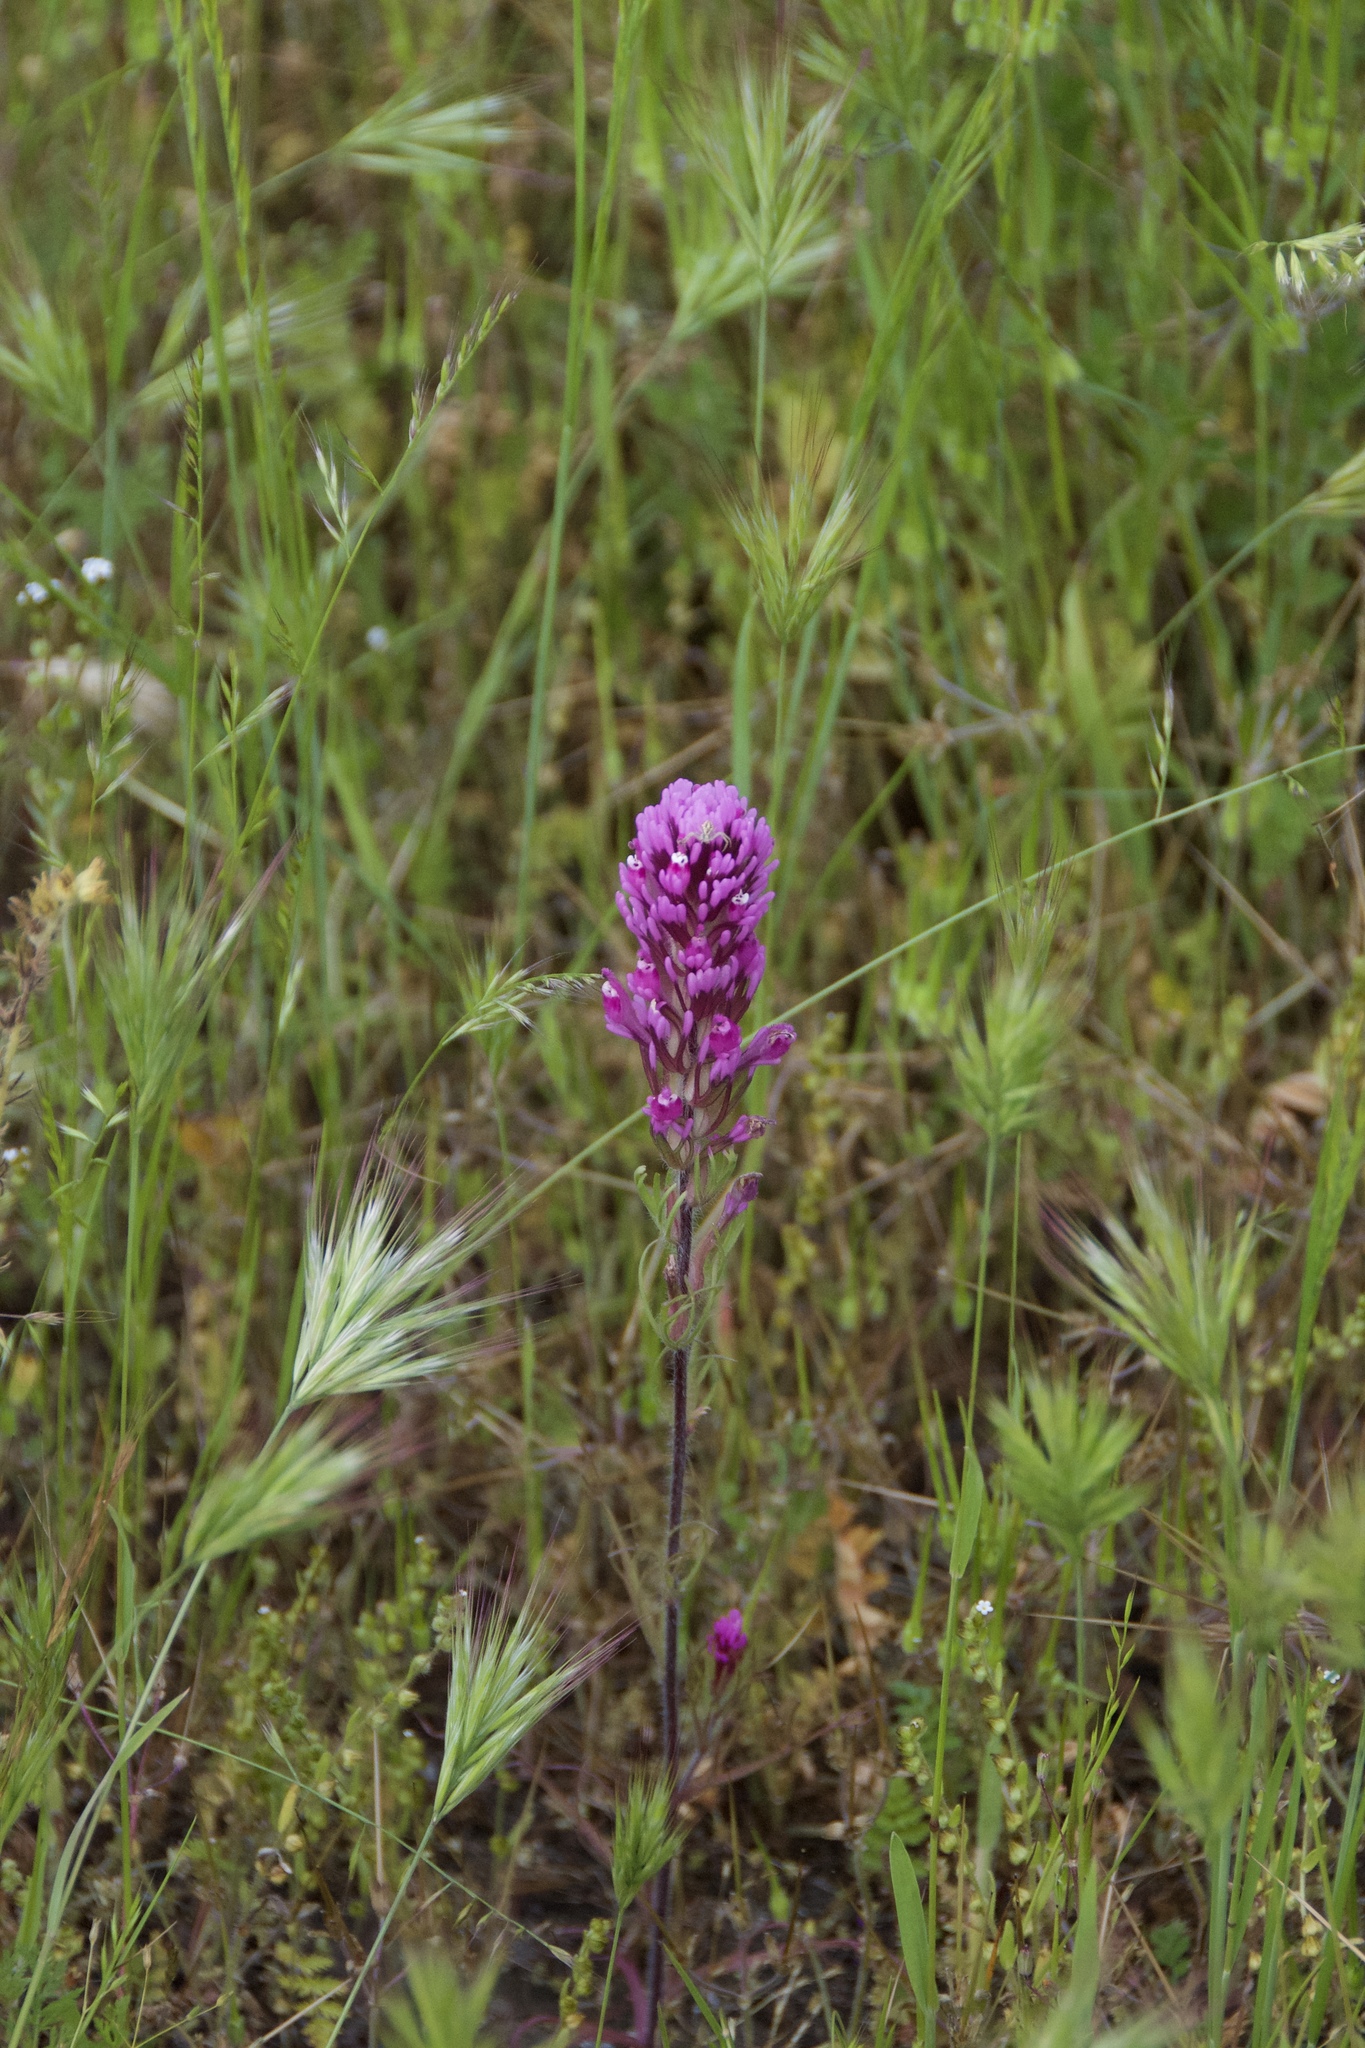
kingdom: Plantae
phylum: Tracheophyta
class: Magnoliopsida
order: Lamiales
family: Orobanchaceae
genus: Castilleja
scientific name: Castilleja exserta
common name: Purple owl-clover
